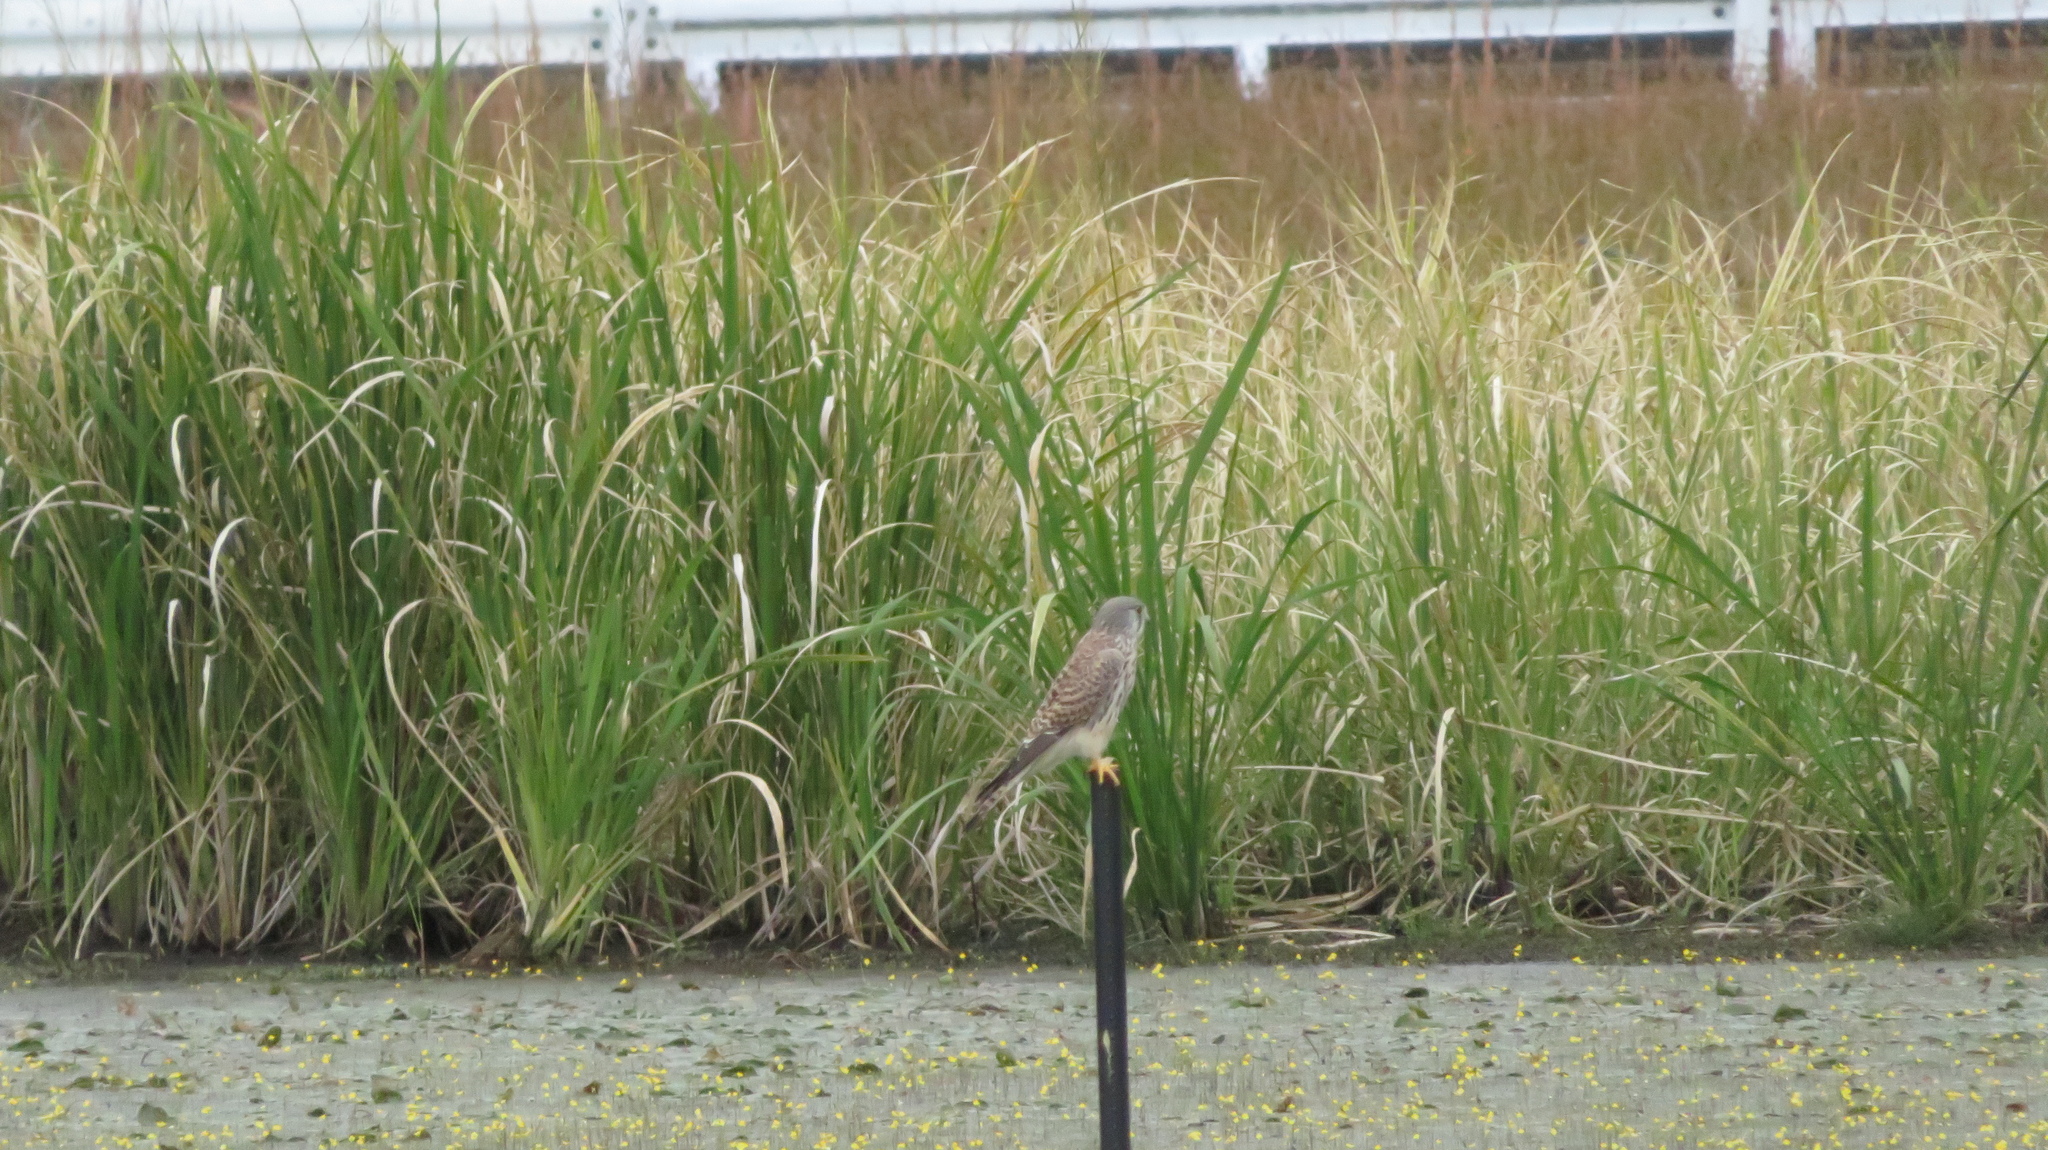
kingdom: Animalia
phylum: Chordata
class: Aves
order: Falconiformes
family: Falconidae
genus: Falco
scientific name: Falco tinnunculus
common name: Common kestrel
